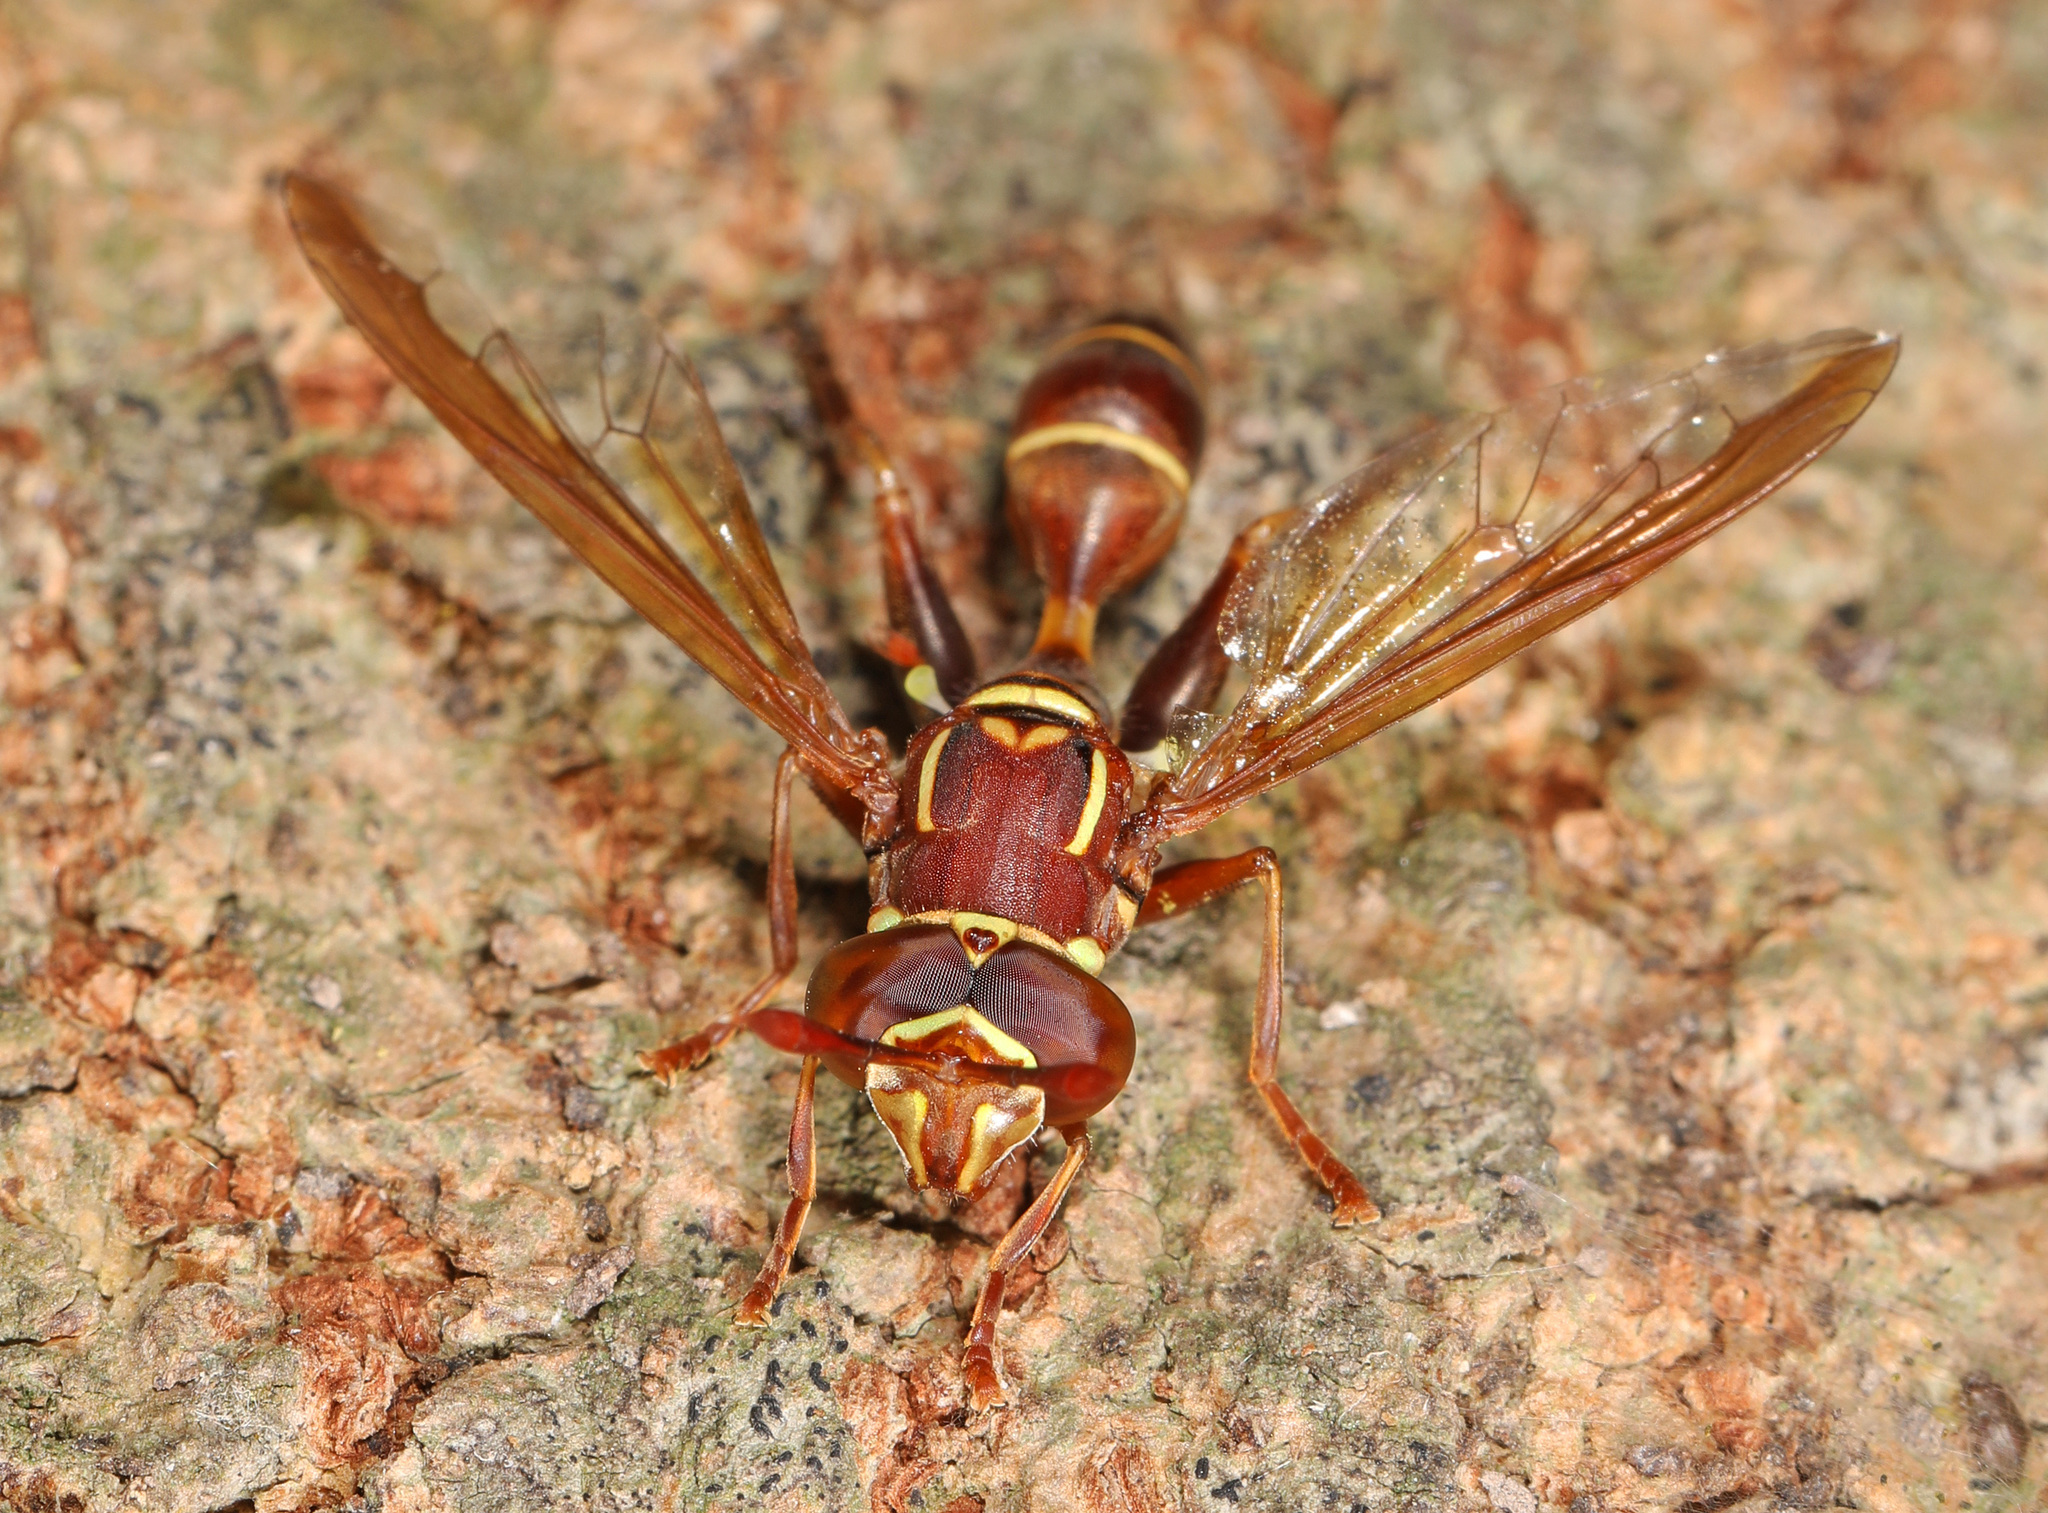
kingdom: Animalia
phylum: Arthropoda
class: Insecta
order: Diptera
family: Syrphidae
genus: Polybiomyia
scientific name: Polybiomyia schnablei
